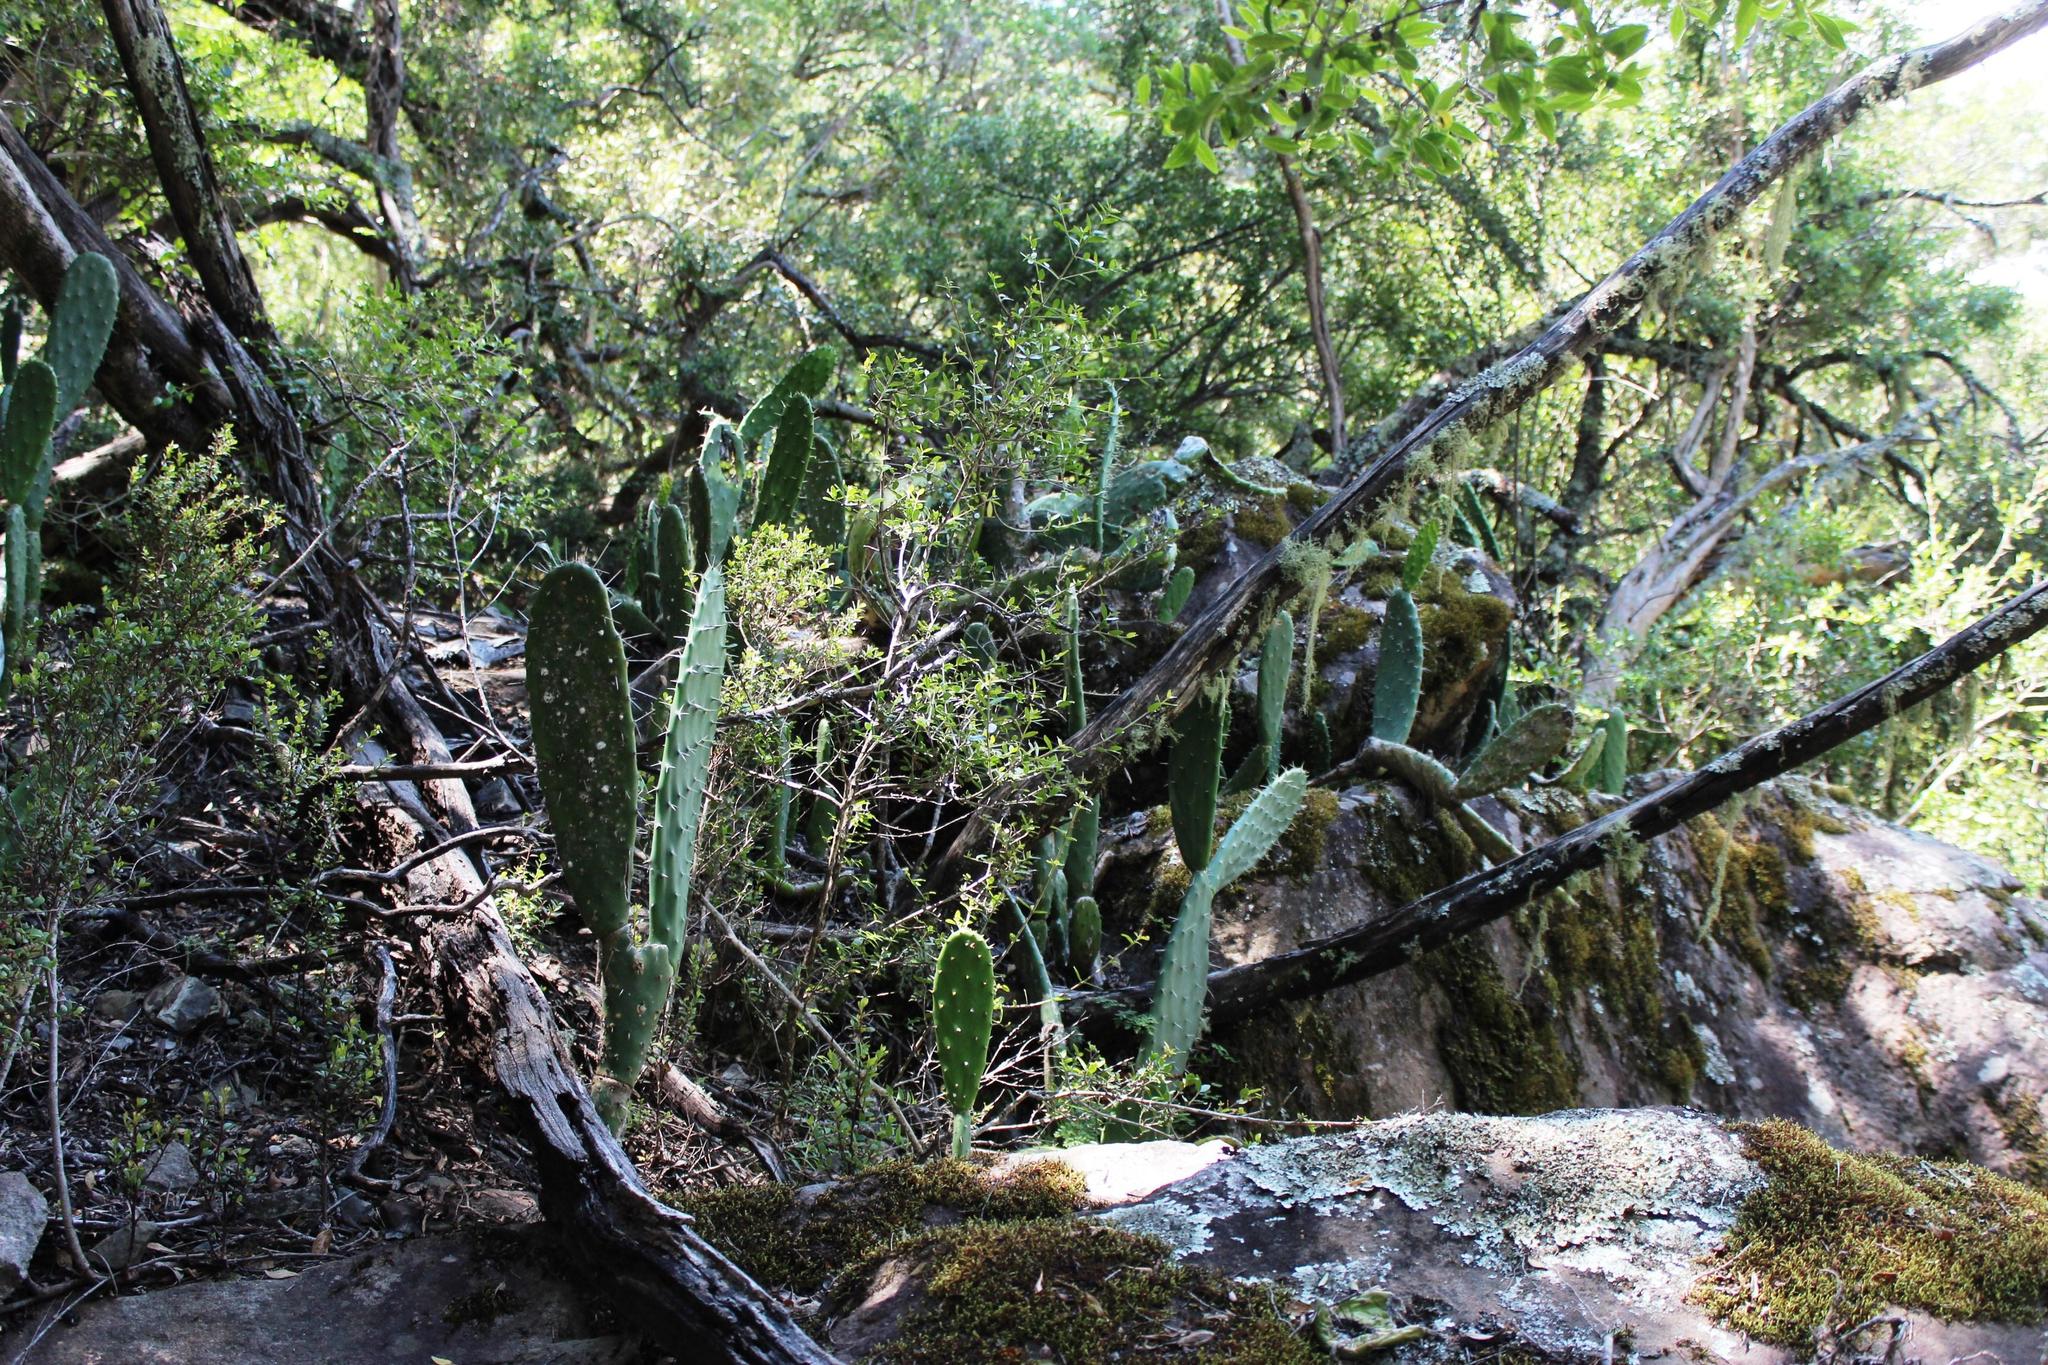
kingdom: Plantae
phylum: Tracheophyta
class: Magnoliopsida
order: Caryophyllales
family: Cactaceae
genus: Opuntia
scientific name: Opuntia ficus-indica
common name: Barbary fig
